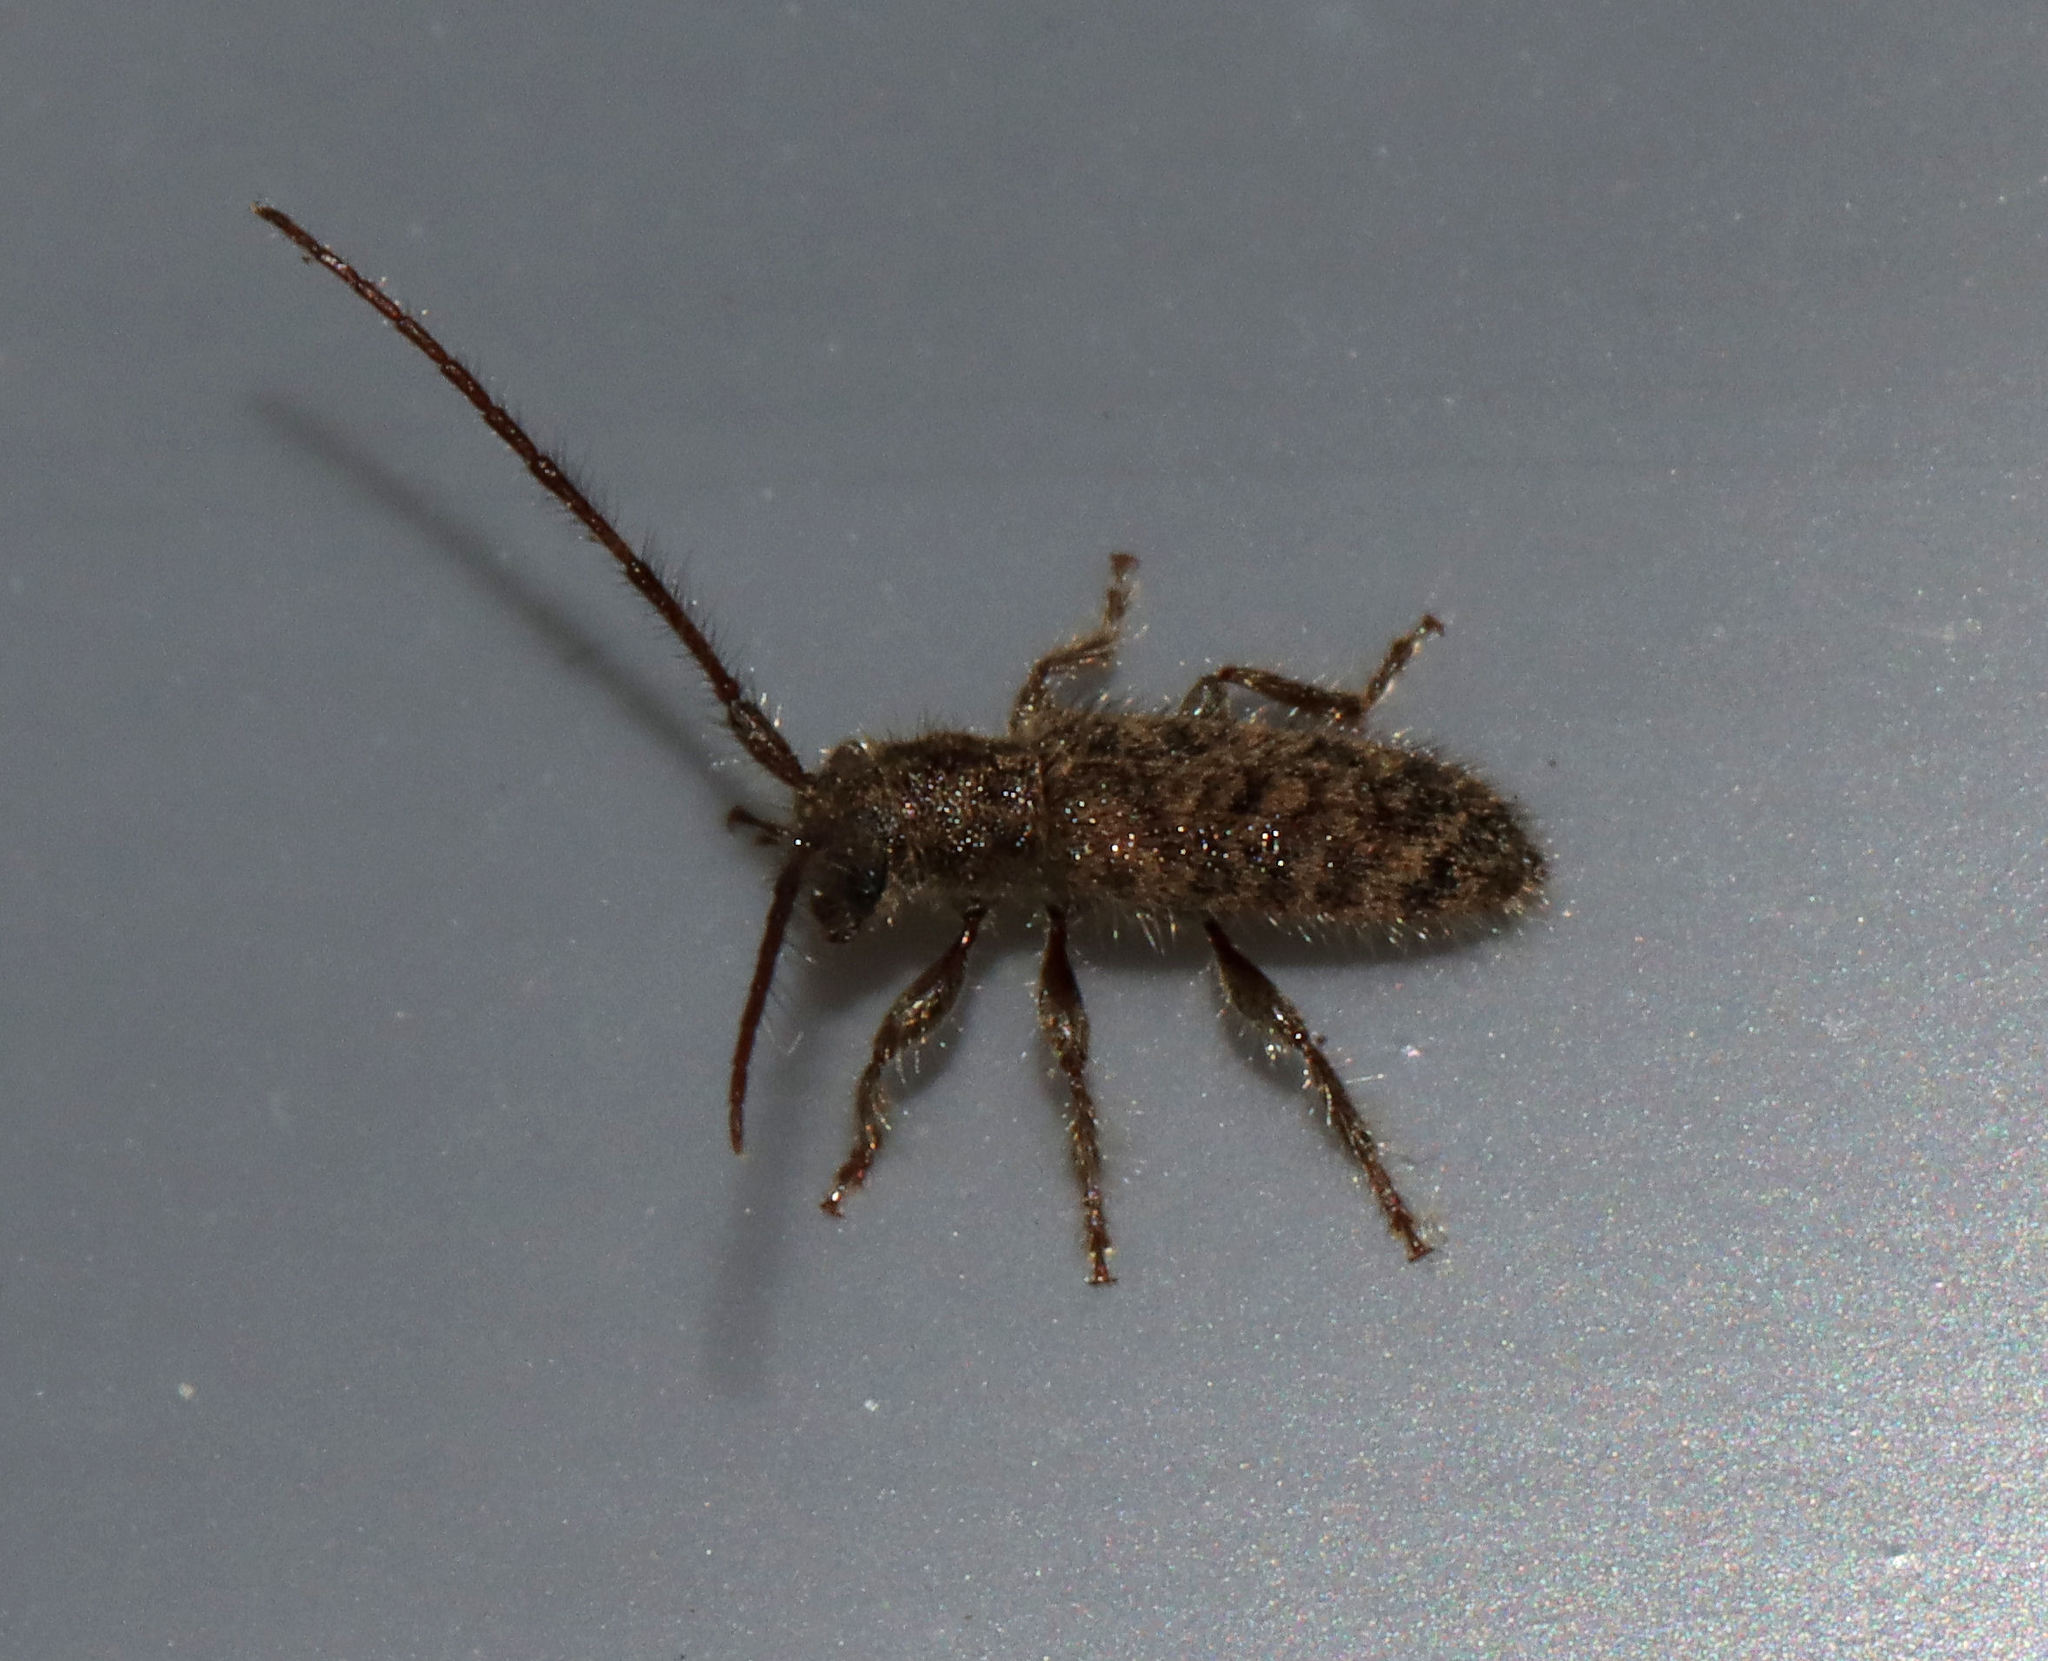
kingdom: Animalia
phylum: Arthropoda
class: Insecta
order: Coleoptera
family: Cerambycidae
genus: Eupogonius
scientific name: Eupogonius pauper
